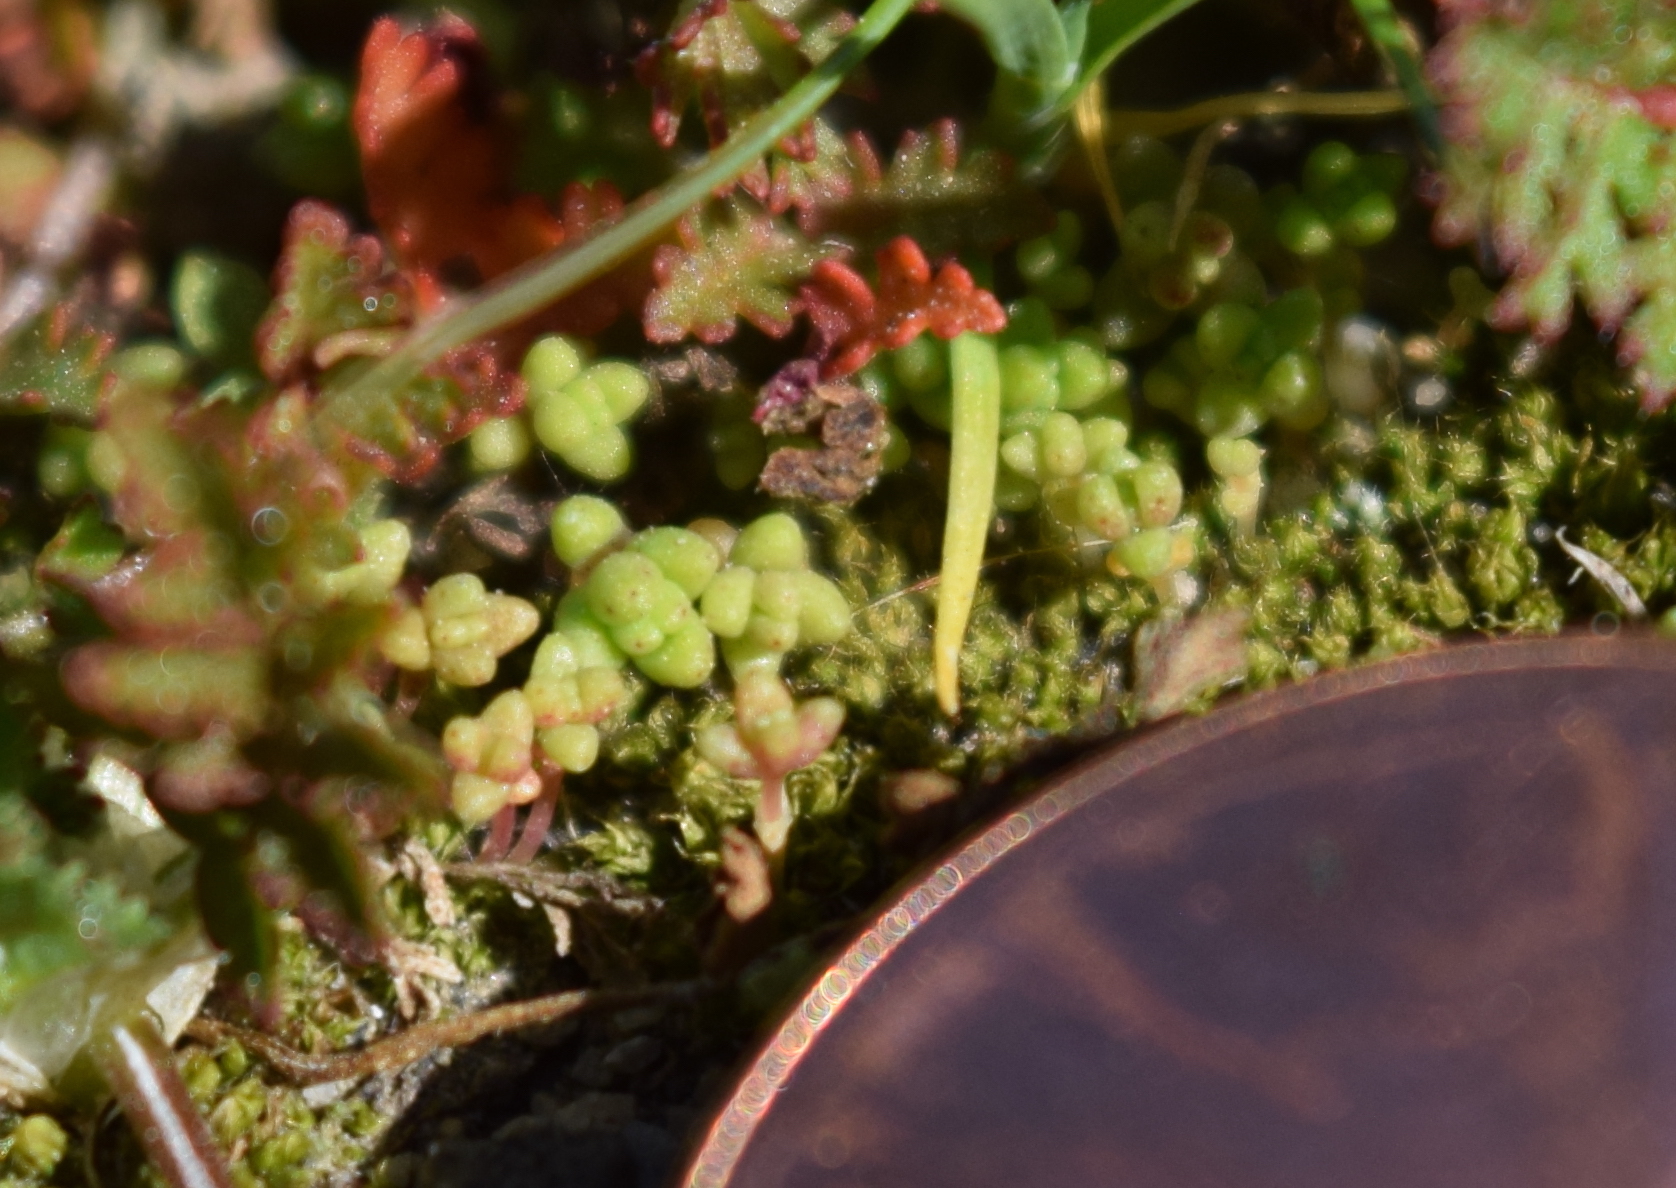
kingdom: Plantae
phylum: Tracheophyta
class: Magnoliopsida
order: Saxifragales
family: Crassulaceae
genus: Crassula
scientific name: Crassula connata
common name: Erect pygmyweed
